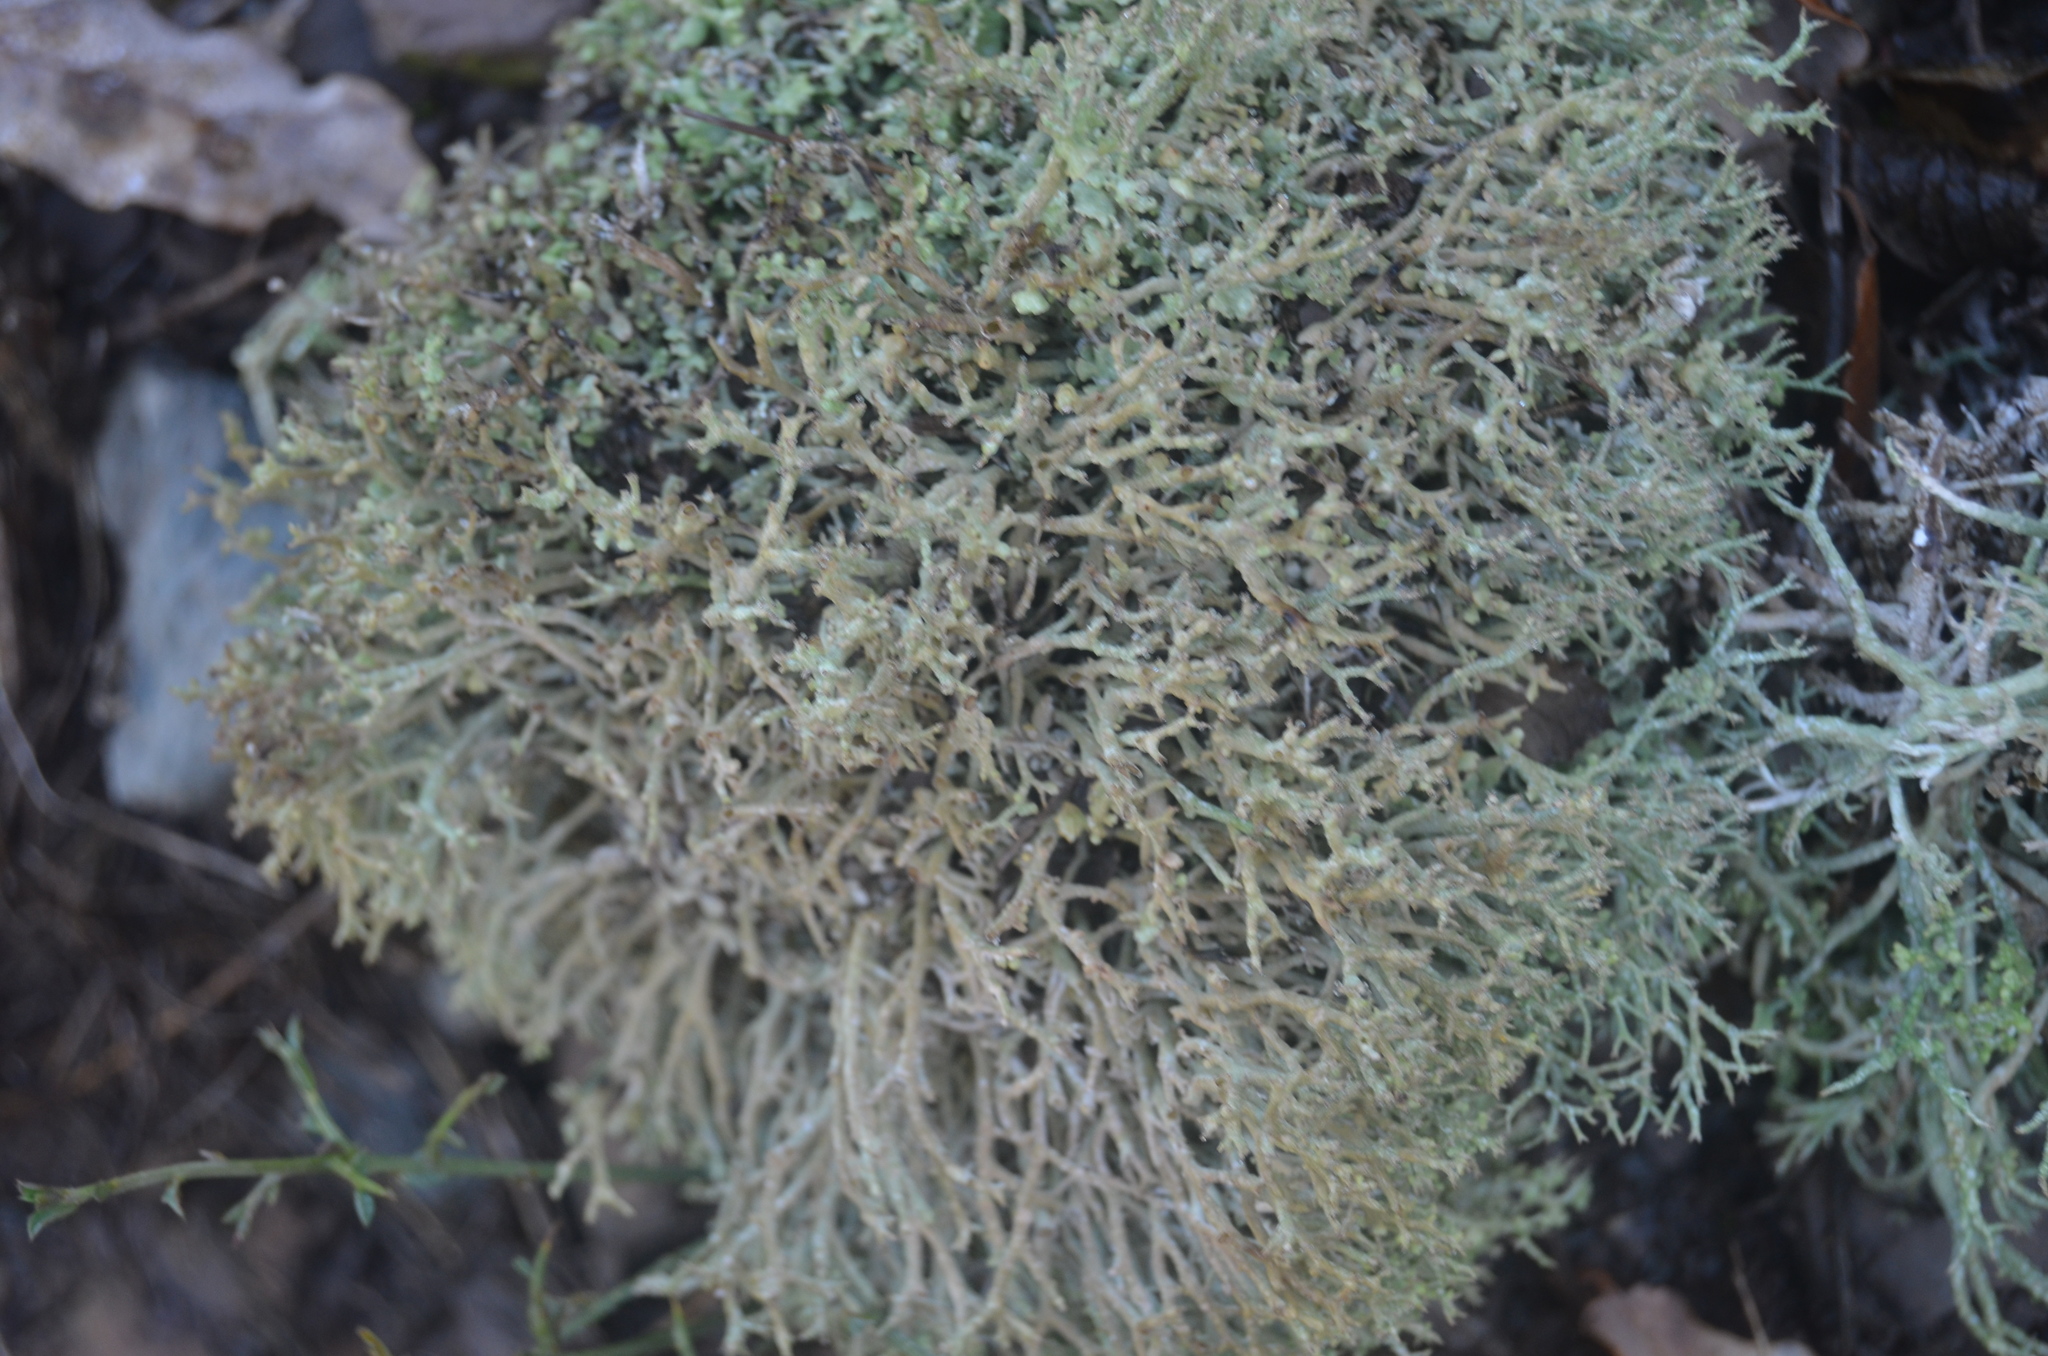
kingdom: Fungi
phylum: Ascomycota
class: Lecanoromycetes
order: Lecanorales
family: Cladoniaceae
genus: Cladonia
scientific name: Cladonia furcata
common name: Many-forked cladonia
